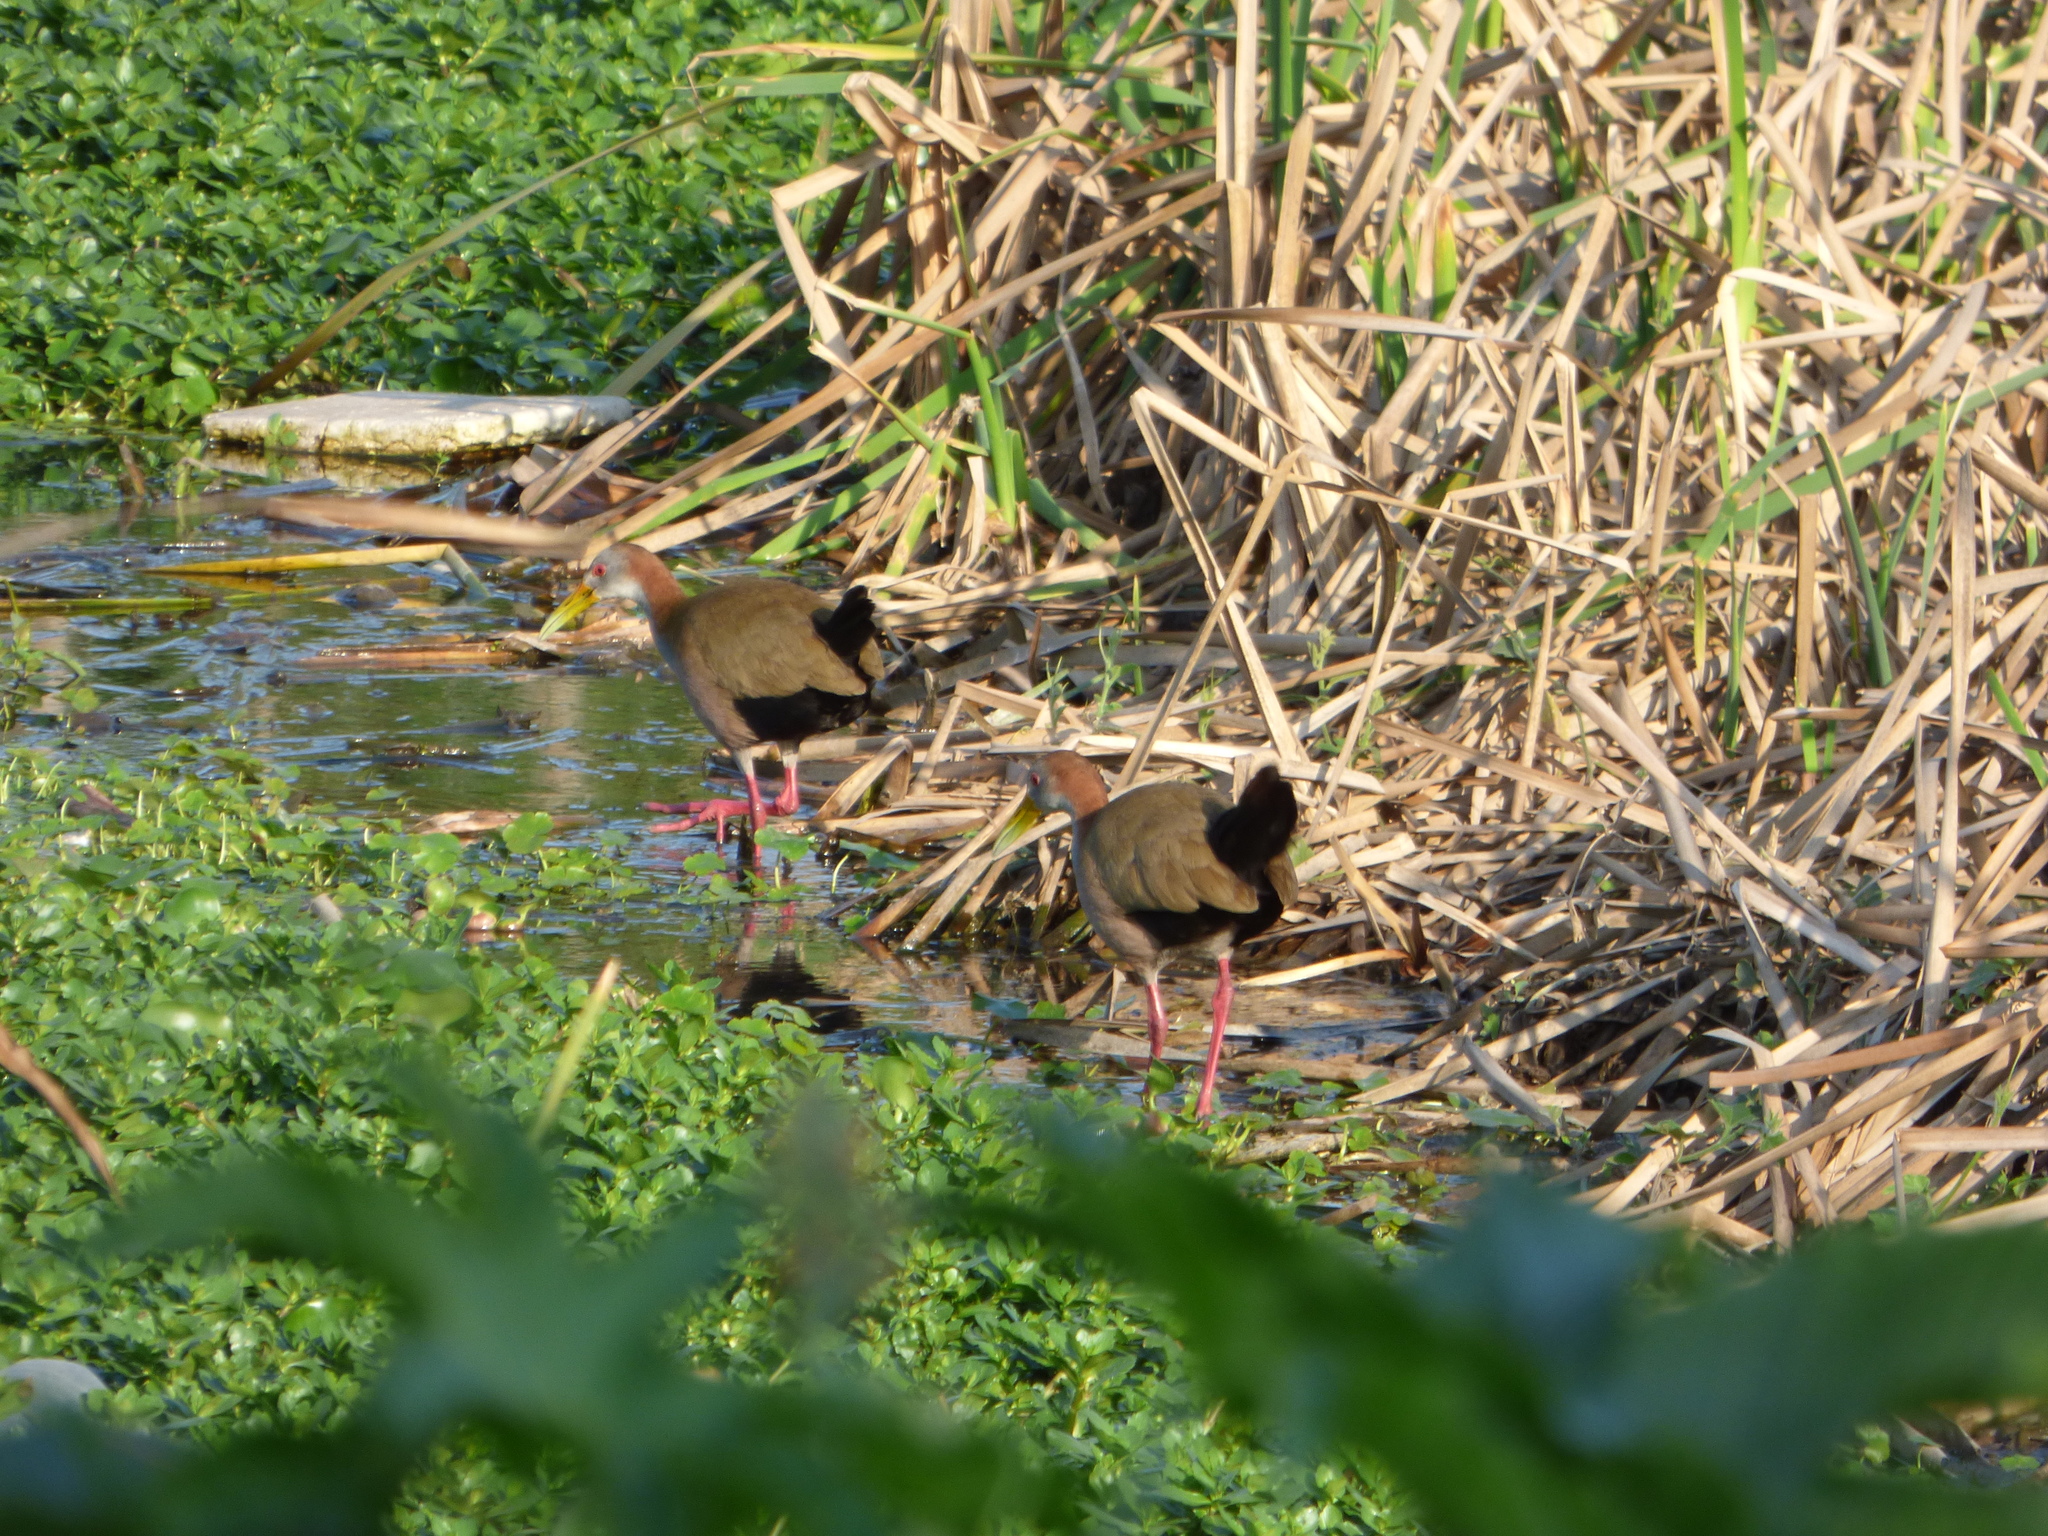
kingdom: Animalia
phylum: Chordata
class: Aves
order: Gruiformes
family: Rallidae
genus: Aramides
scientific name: Aramides ypecaha
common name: Giant wood rail
